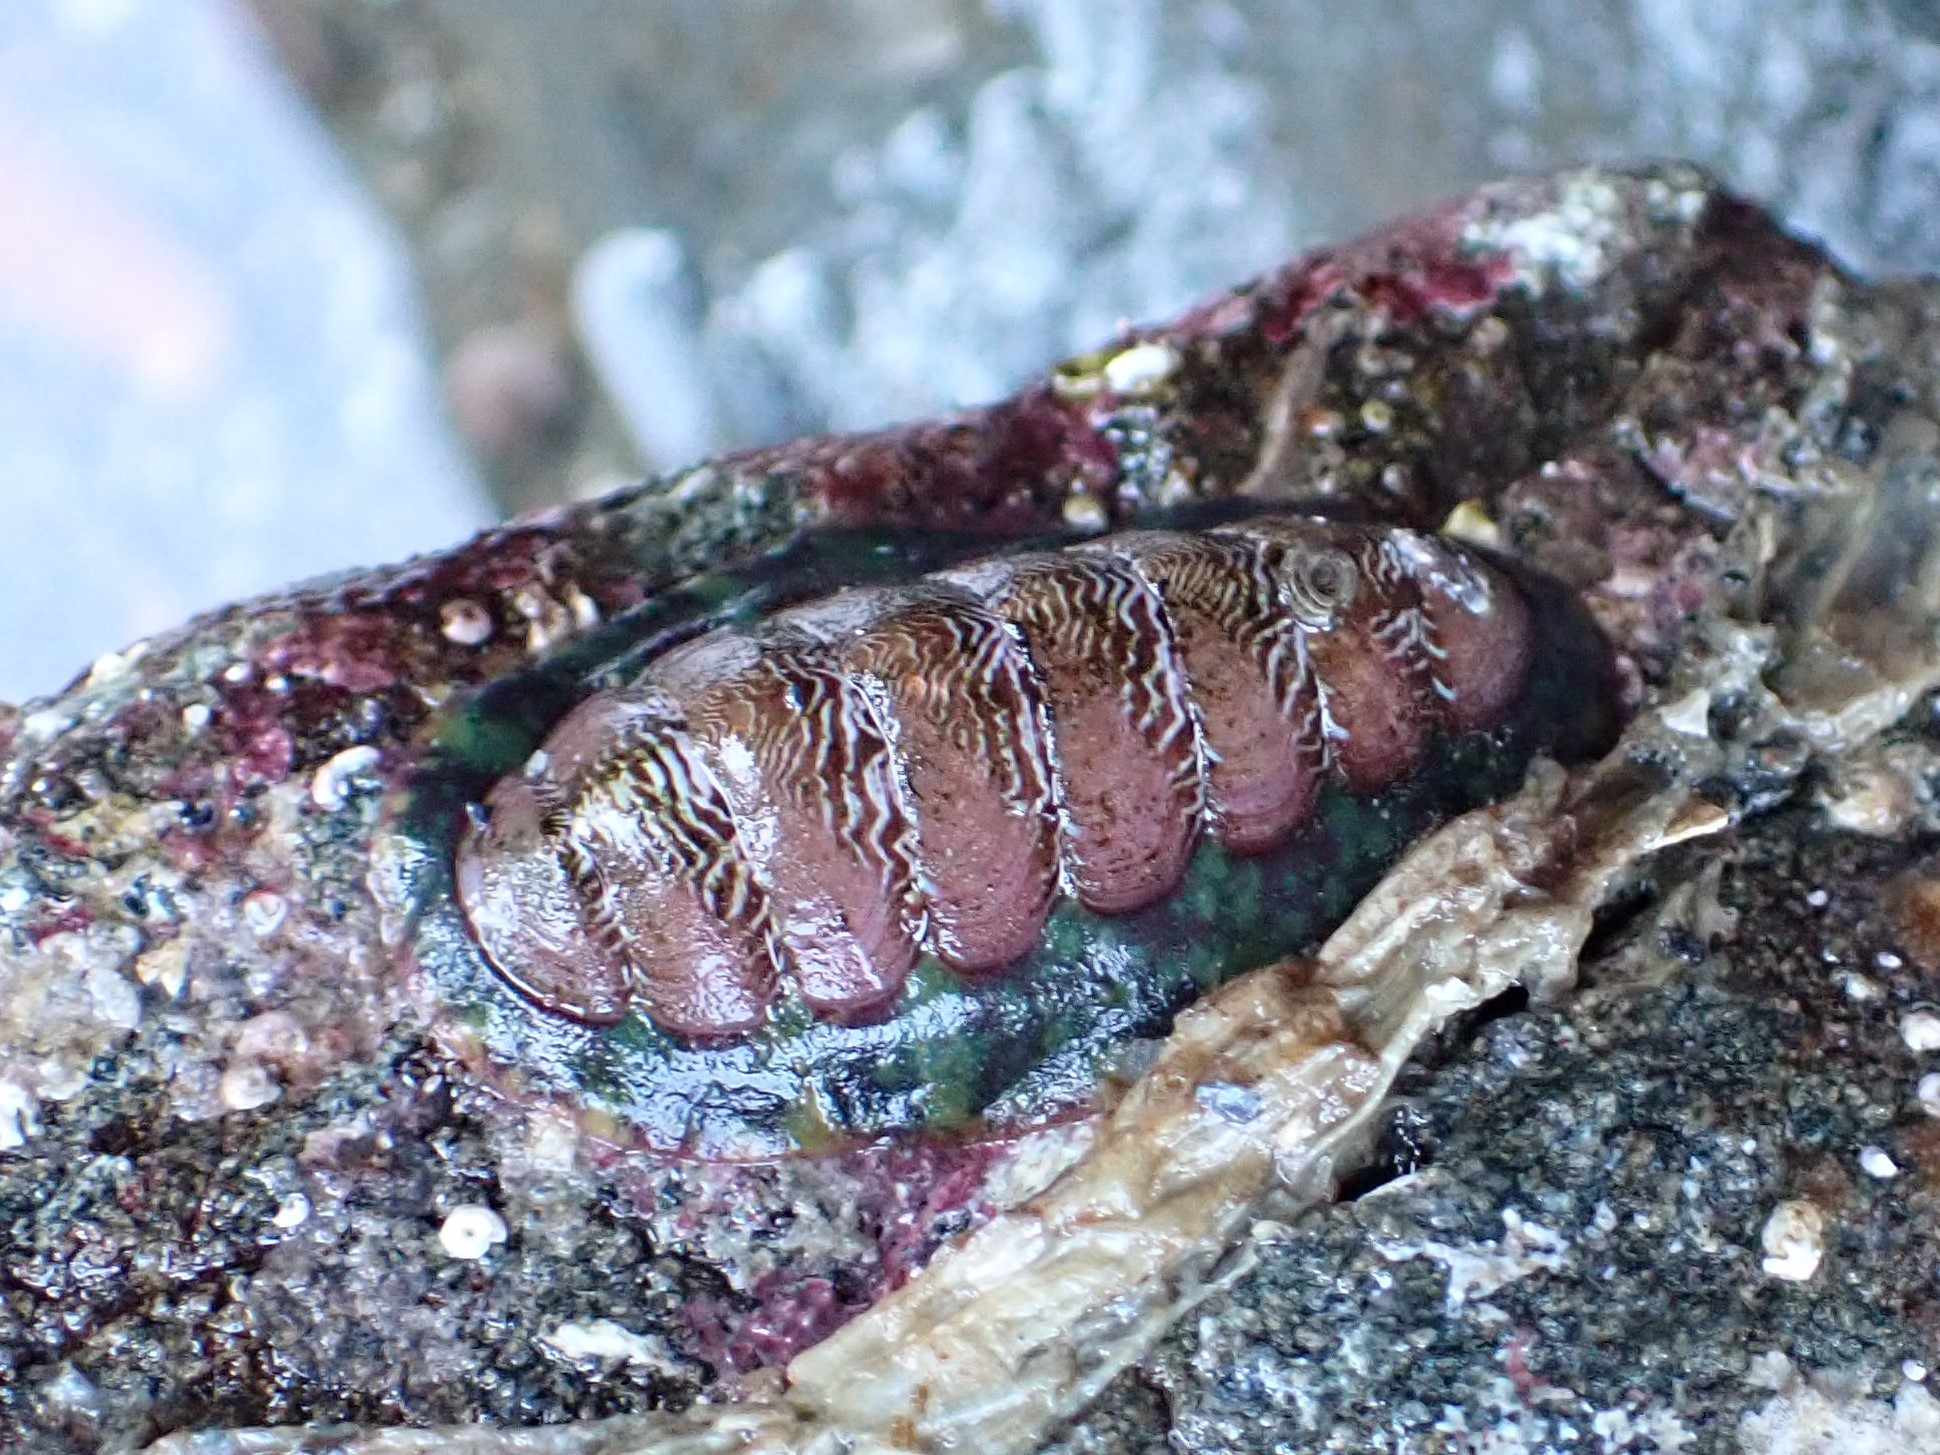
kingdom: Animalia
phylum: Mollusca
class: Polyplacophora
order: Chitonida
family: Tonicellidae
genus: Tonicella
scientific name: Tonicella insignis
